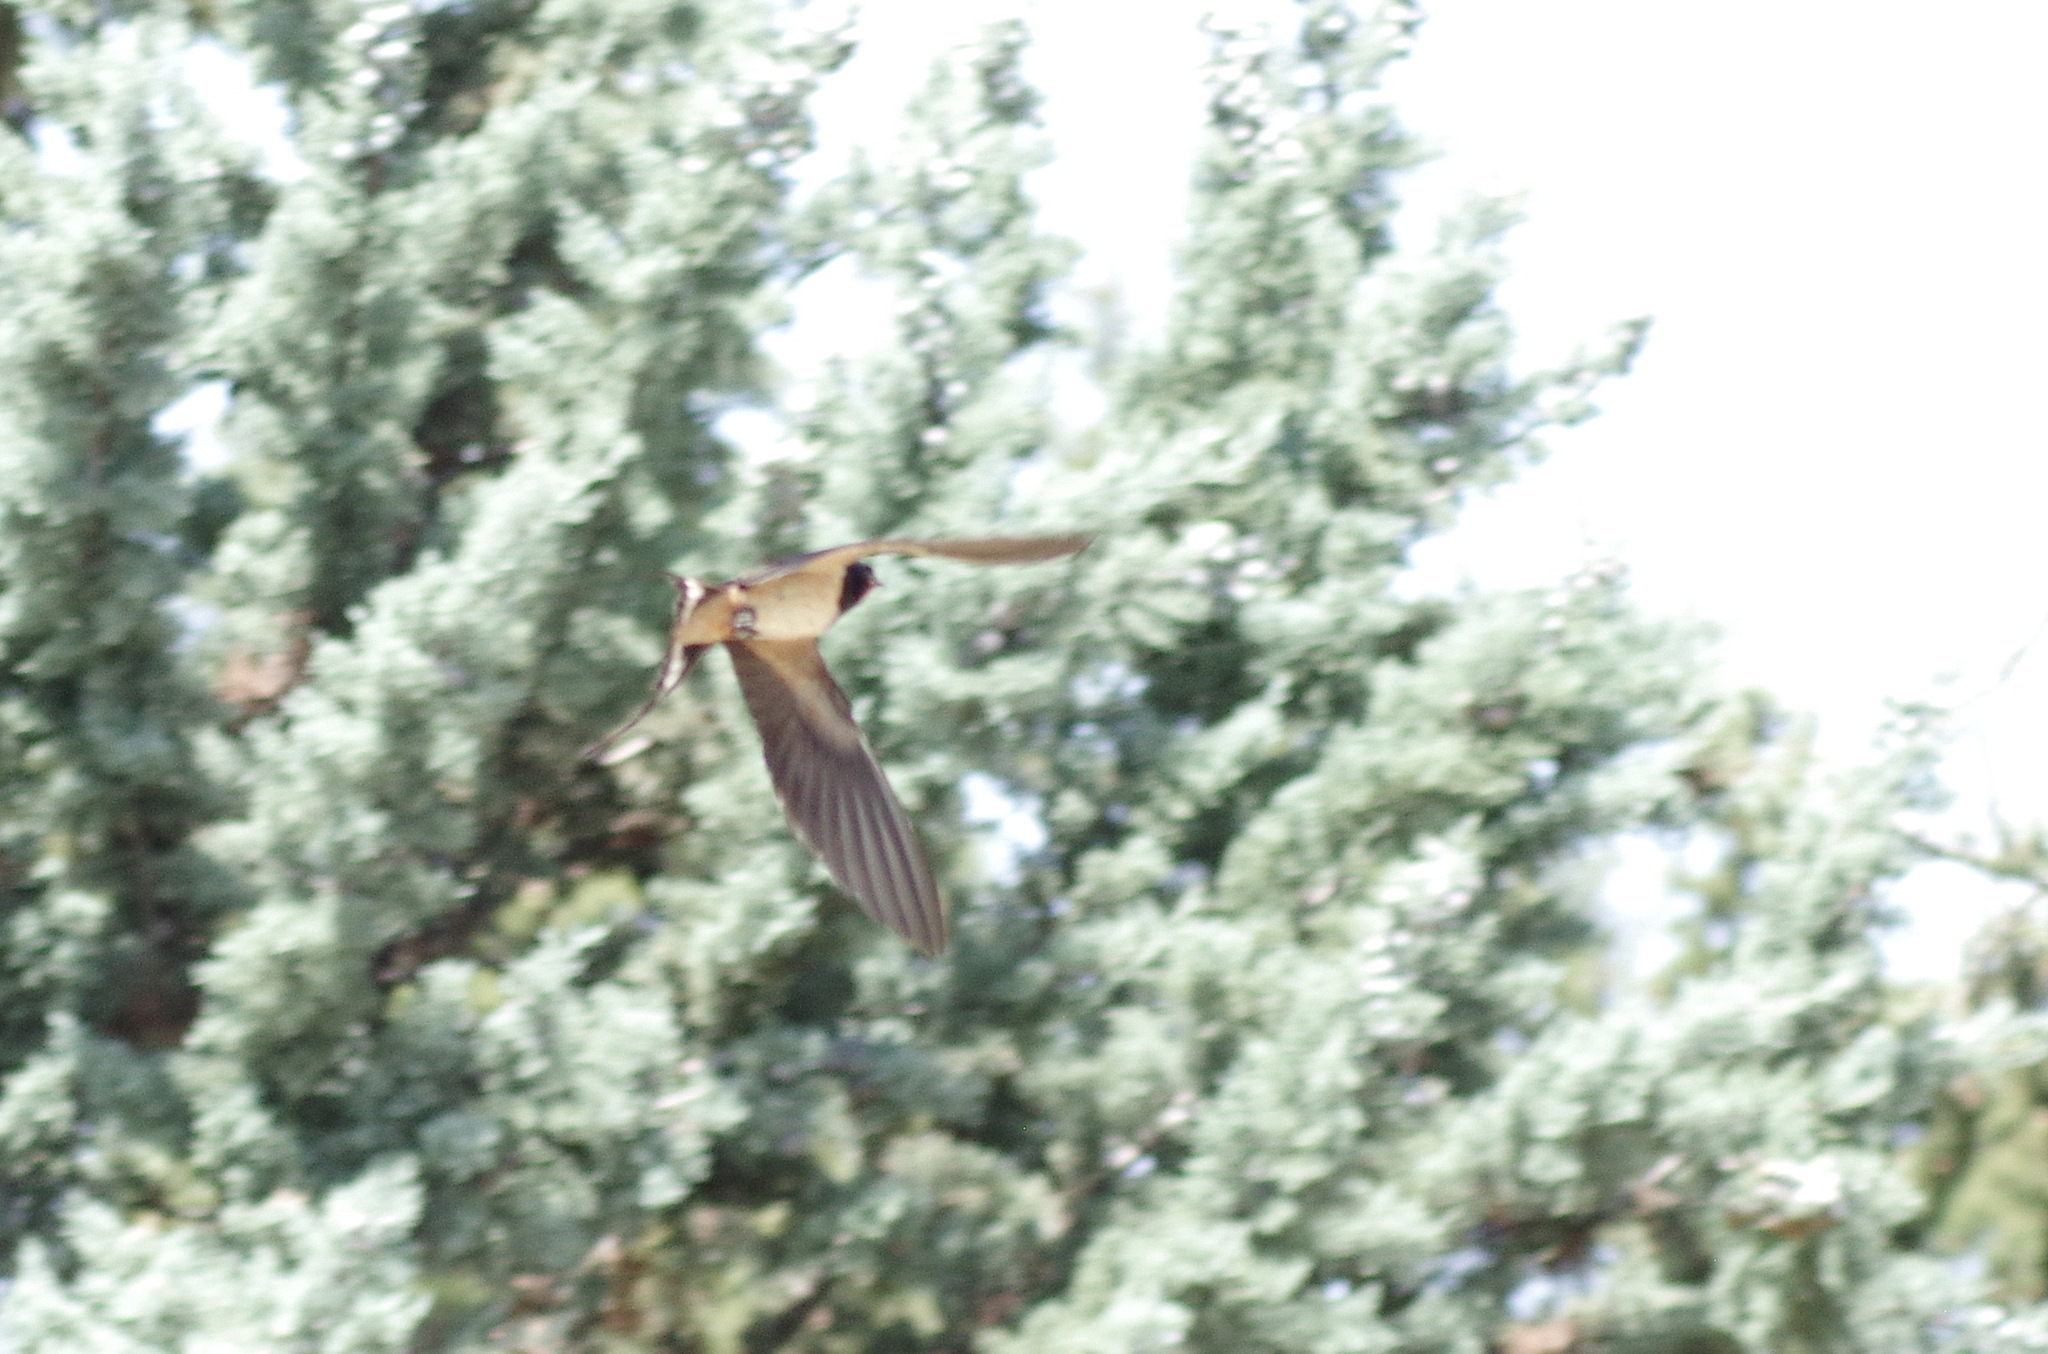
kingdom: Animalia
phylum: Chordata
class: Aves
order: Passeriformes
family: Hirundinidae
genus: Hirundo
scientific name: Hirundo rustica
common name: Barn swallow
